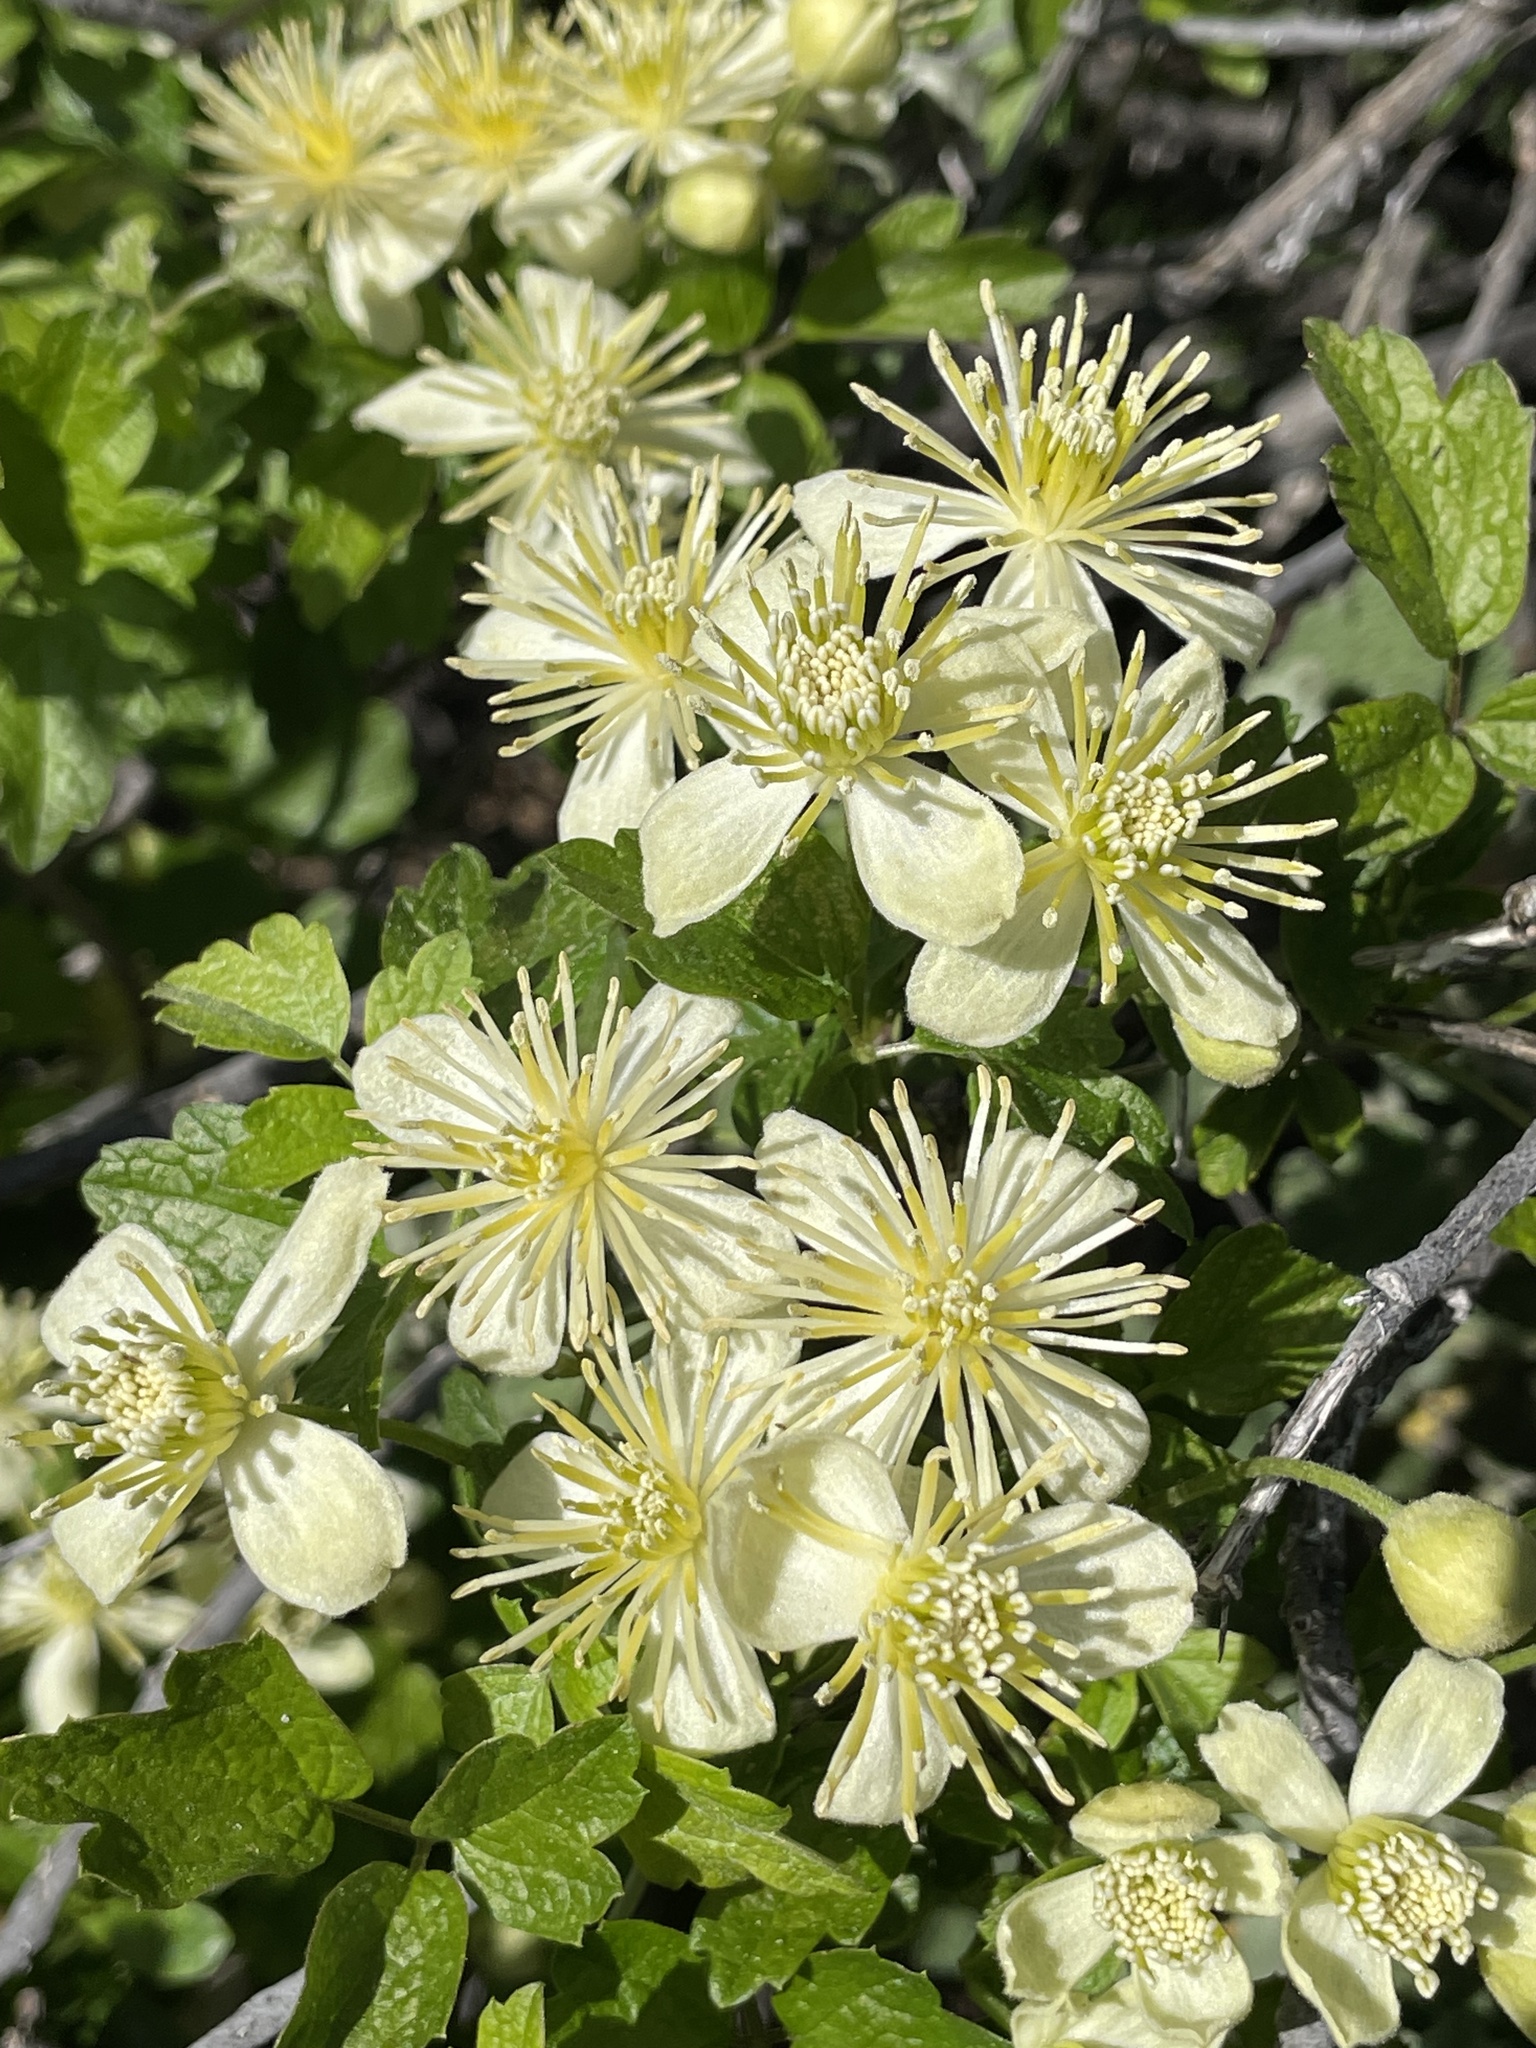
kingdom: Plantae
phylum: Tracheophyta
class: Magnoliopsida
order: Ranunculales
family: Ranunculaceae
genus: Clematis
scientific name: Clematis lasiantha
